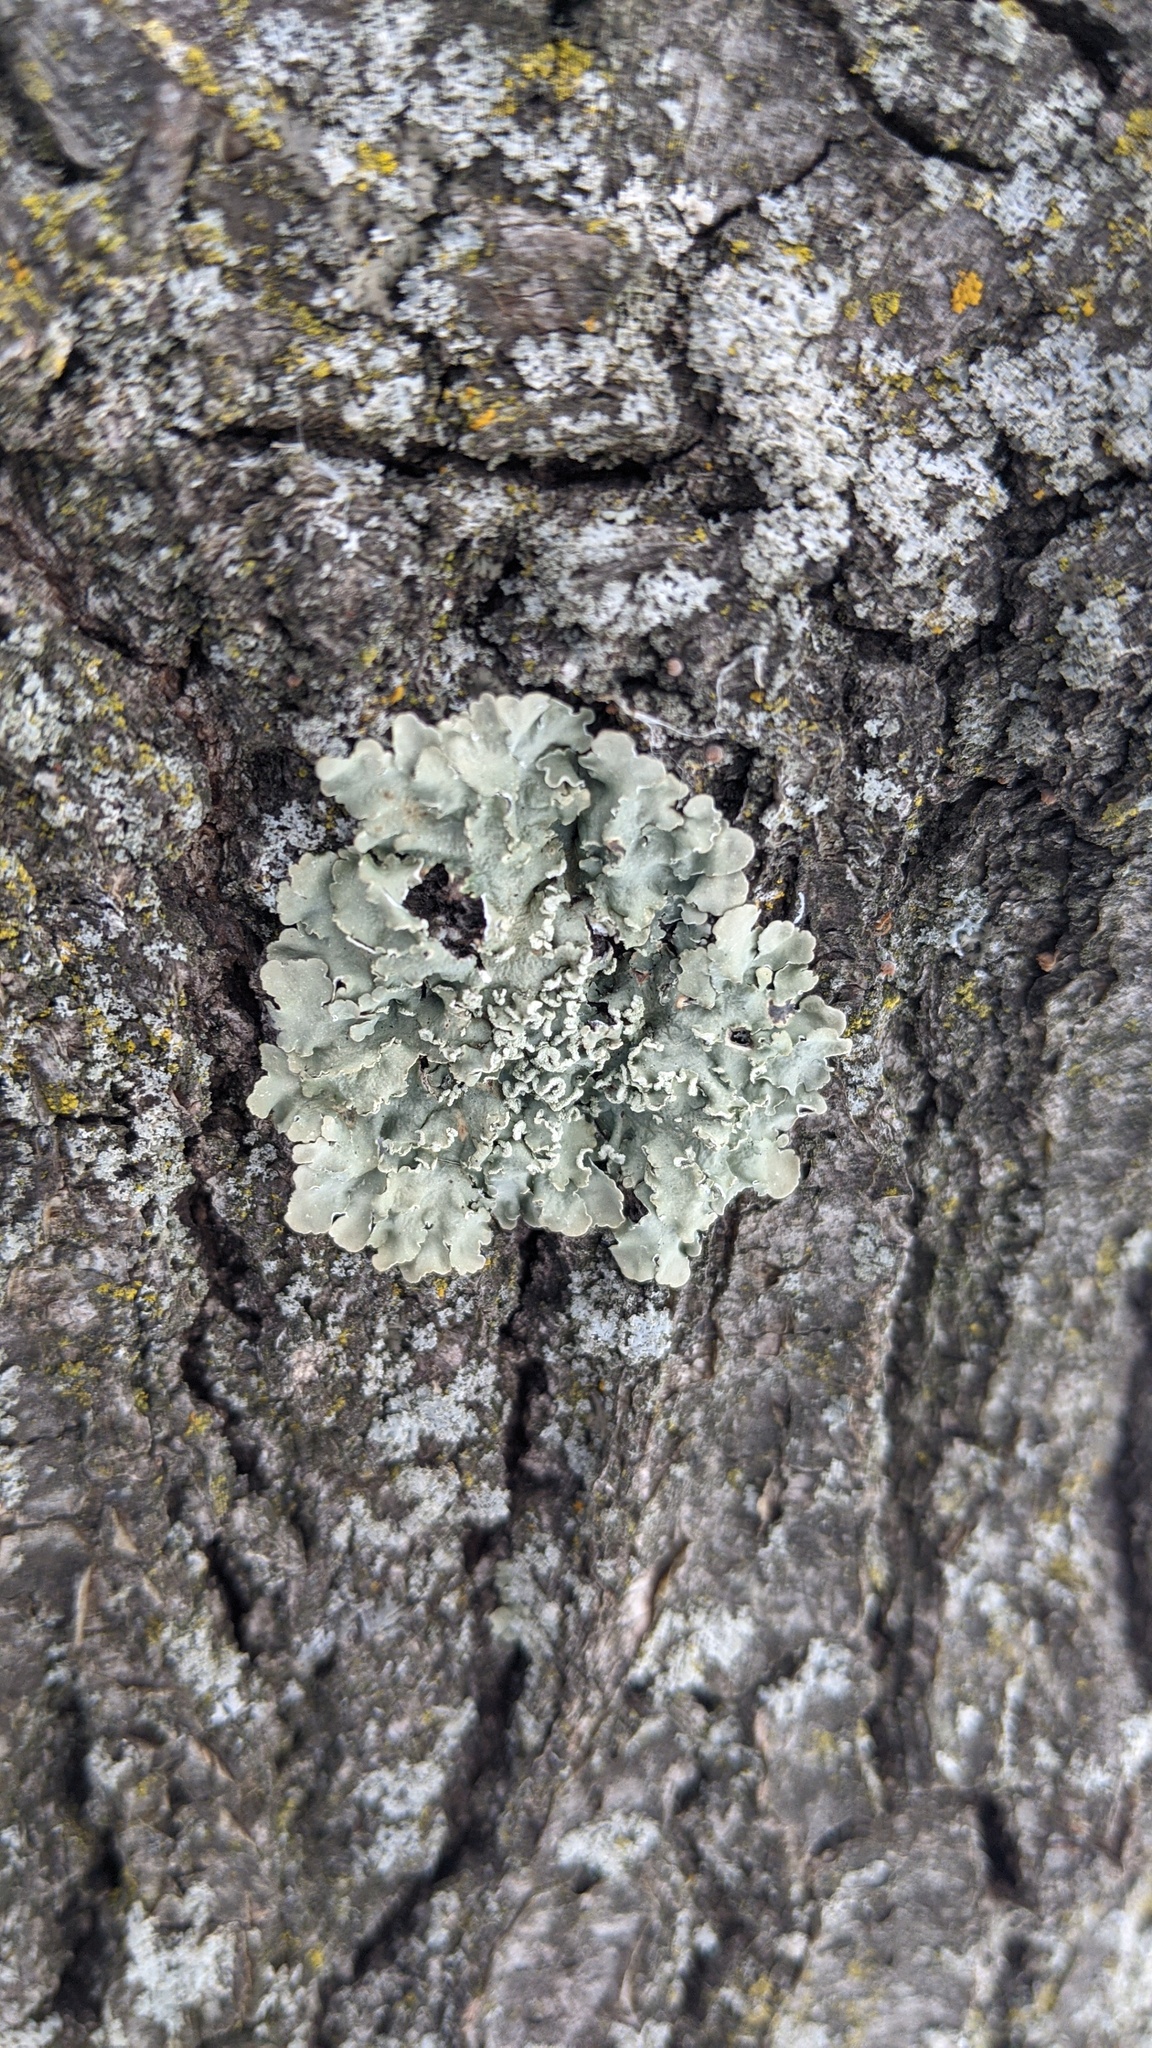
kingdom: Fungi
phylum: Ascomycota
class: Lecanoromycetes
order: Lecanorales
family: Parmeliaceae
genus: Flavopunctelia
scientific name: Flavopunctelia soredica
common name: Powder-edged speckled greenshield
